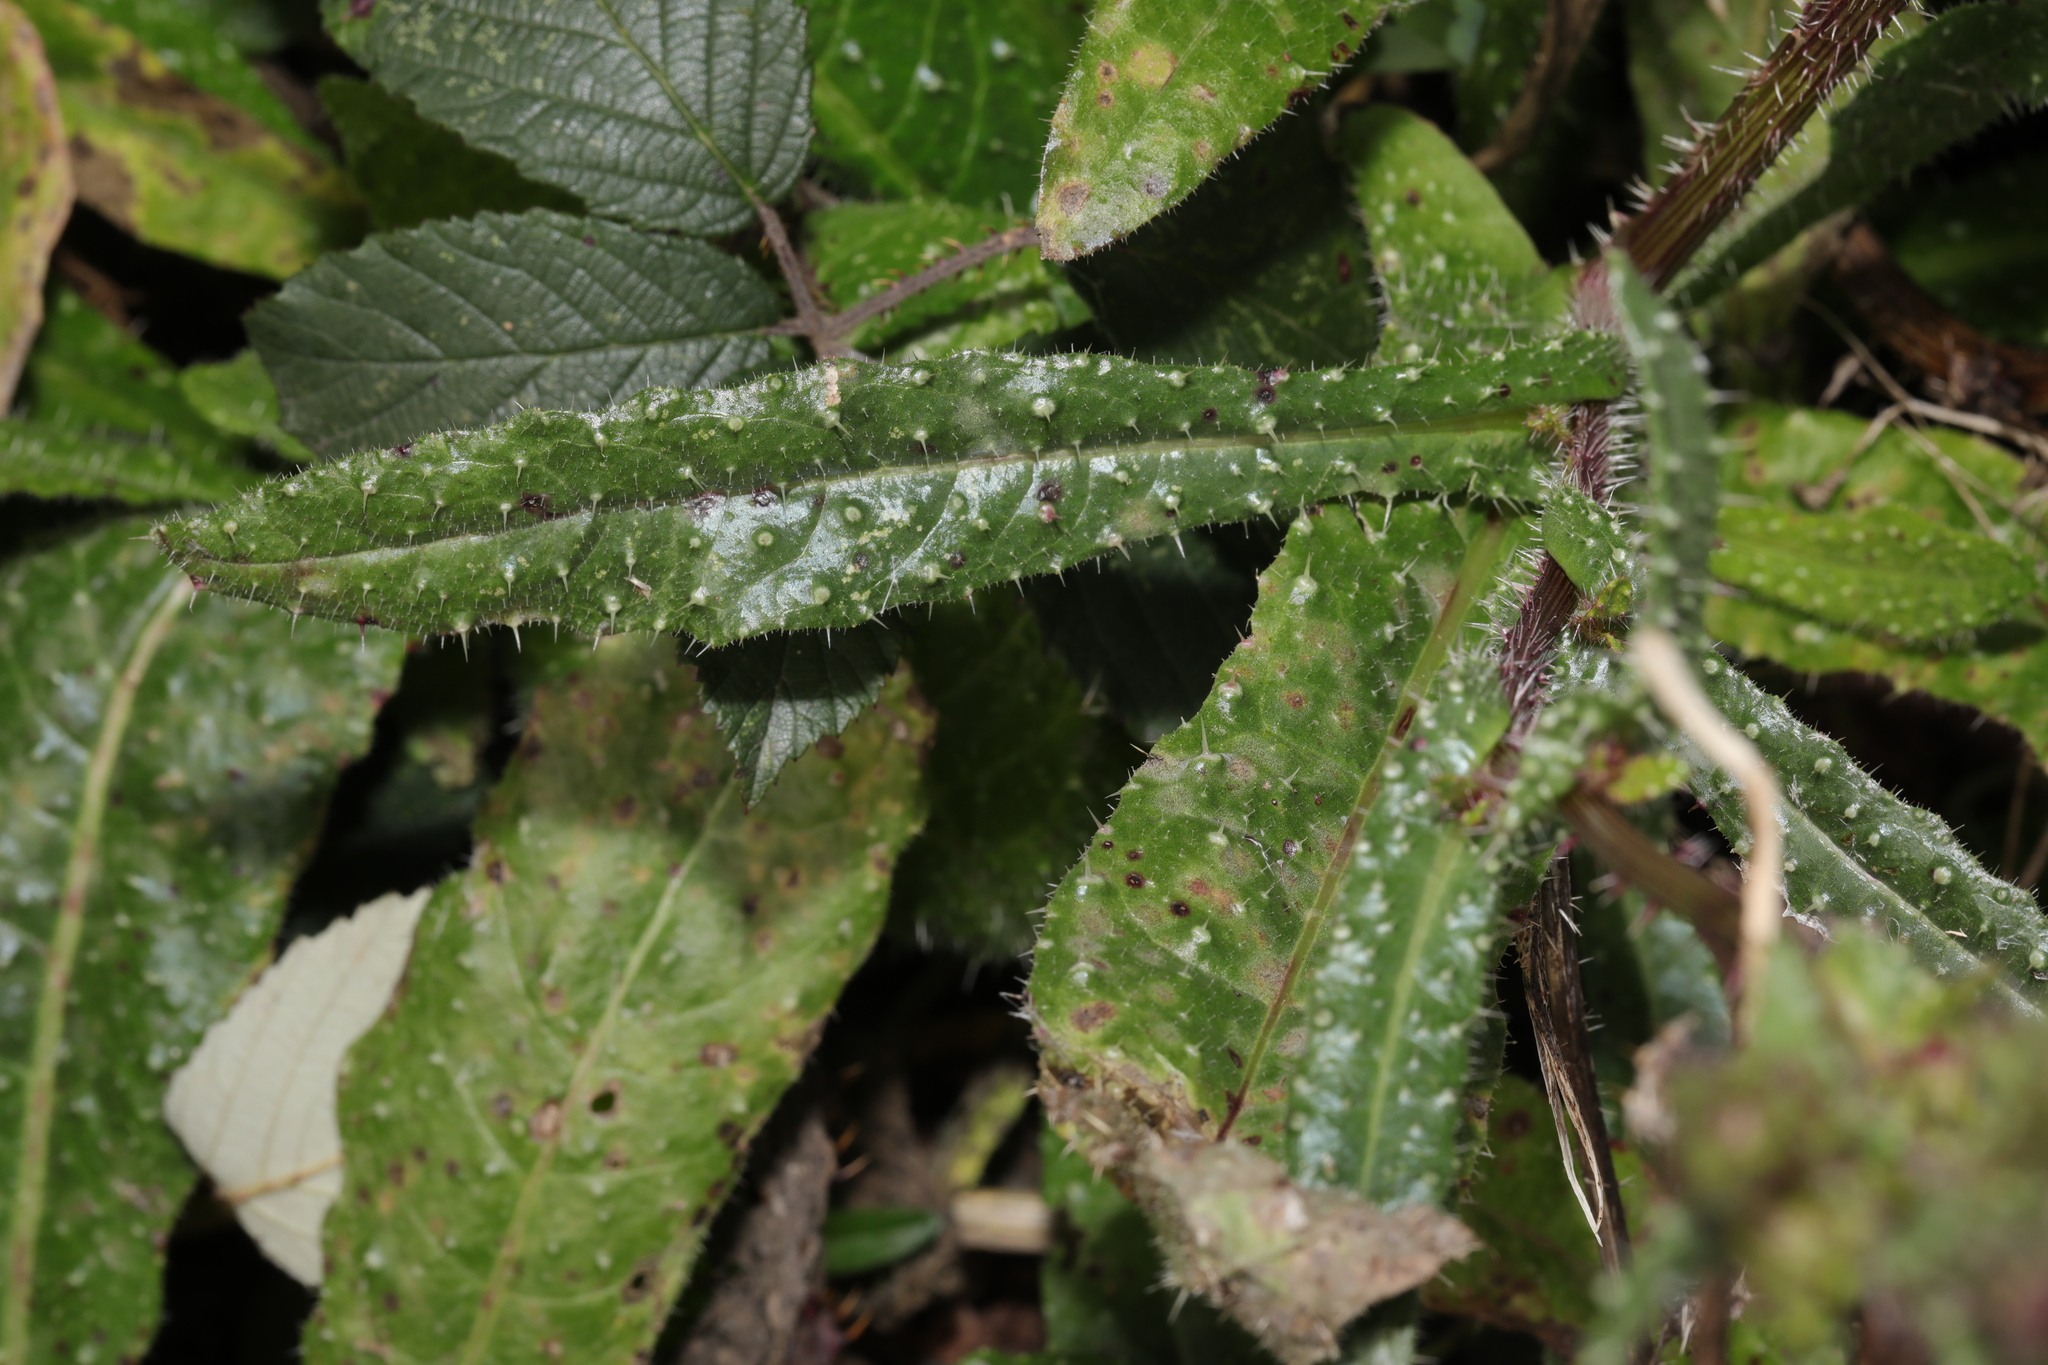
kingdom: Plantae
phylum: Tracheophyta
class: Magnoliopsida
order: Asterales
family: Asteraceae
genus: Helminthotheca
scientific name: Helminthotheca echioides
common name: Ox-tongue
